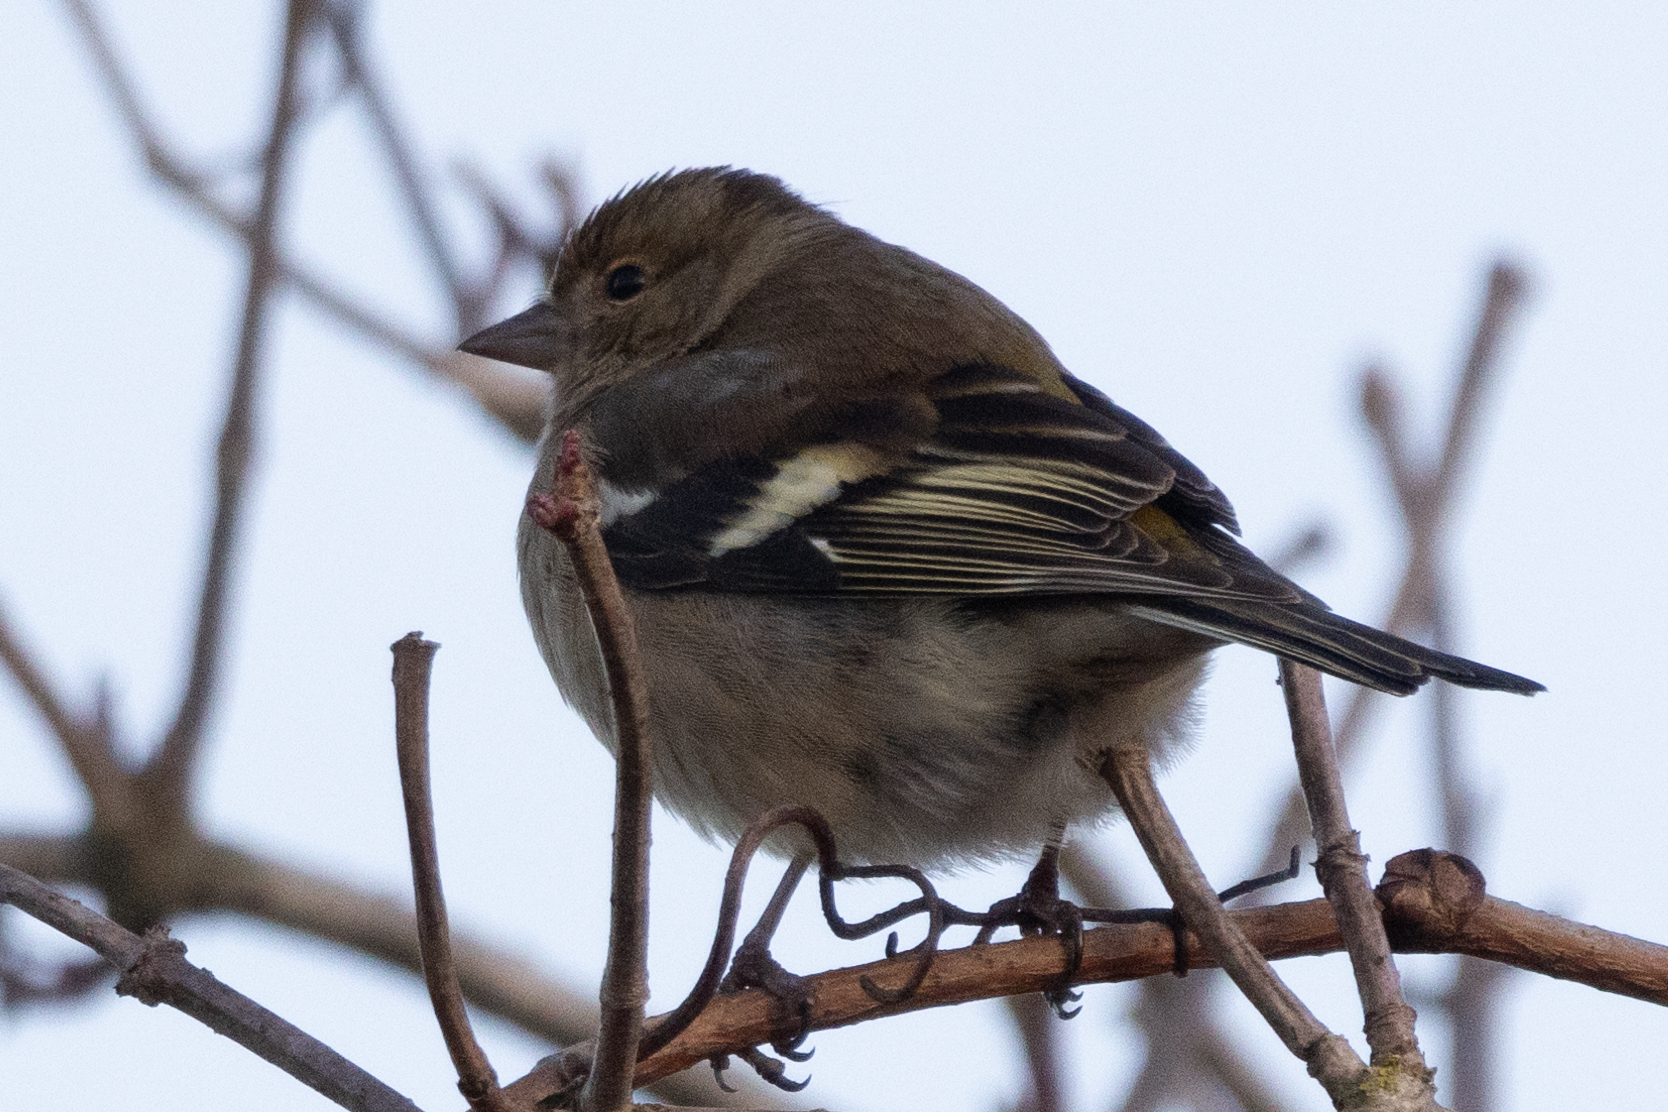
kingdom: Animalia
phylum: Chordata
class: Aves
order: Passeriformes
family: Fringillidae
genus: Fringilla
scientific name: Fringilla coelebs
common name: Common chaffinch
